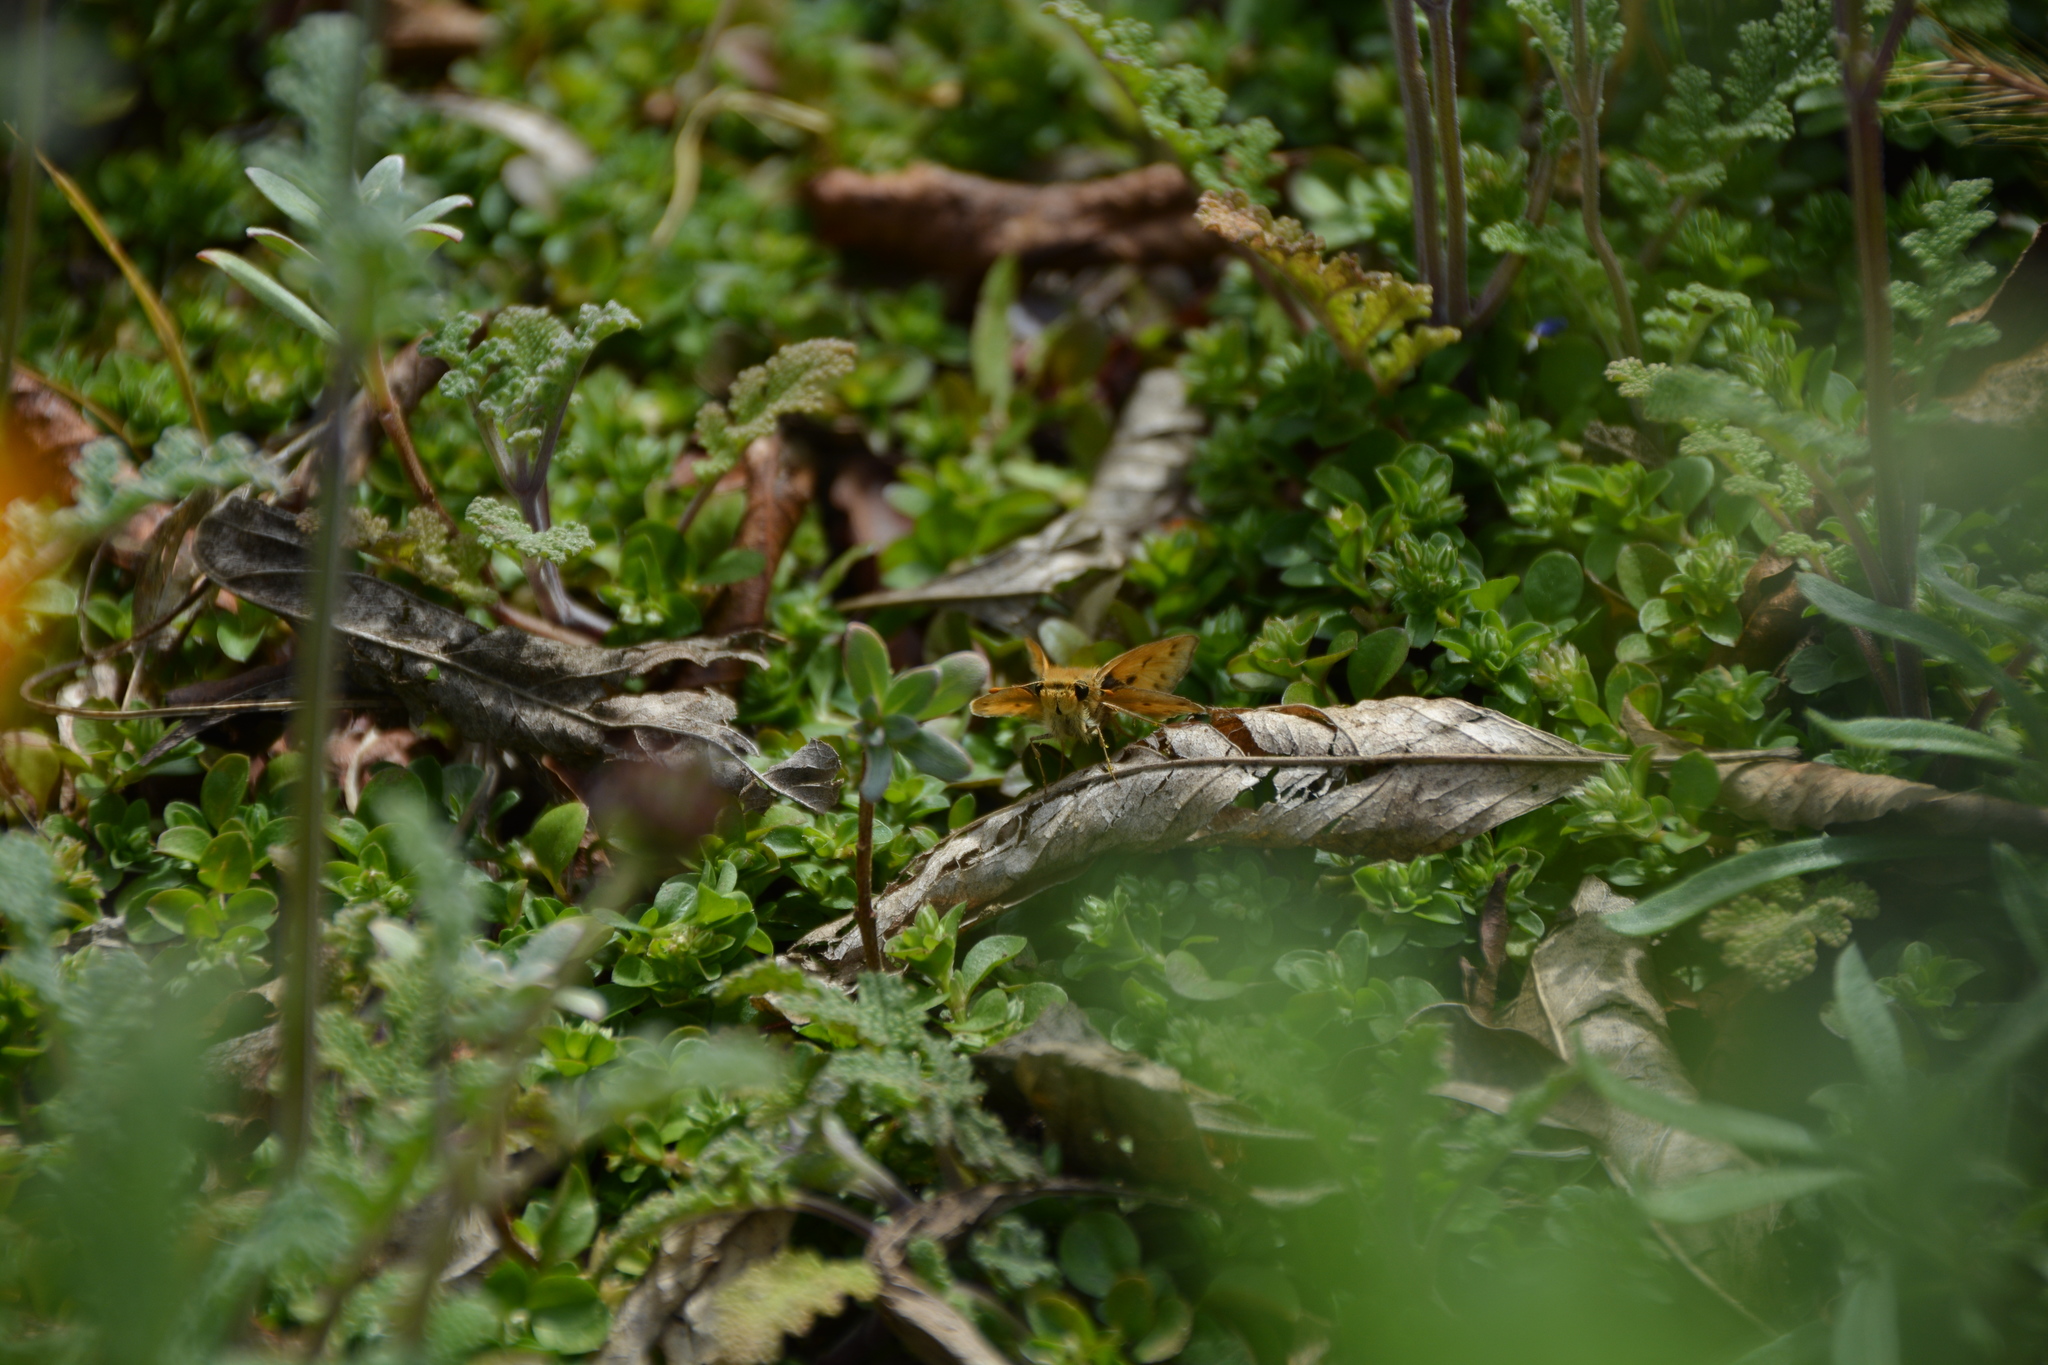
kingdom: Animalia
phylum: Arthropoda
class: Insecta
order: Lepidoptera
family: Hesperiidae
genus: Hylephila
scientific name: Hylephila phyleus
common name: Fiery skipper
